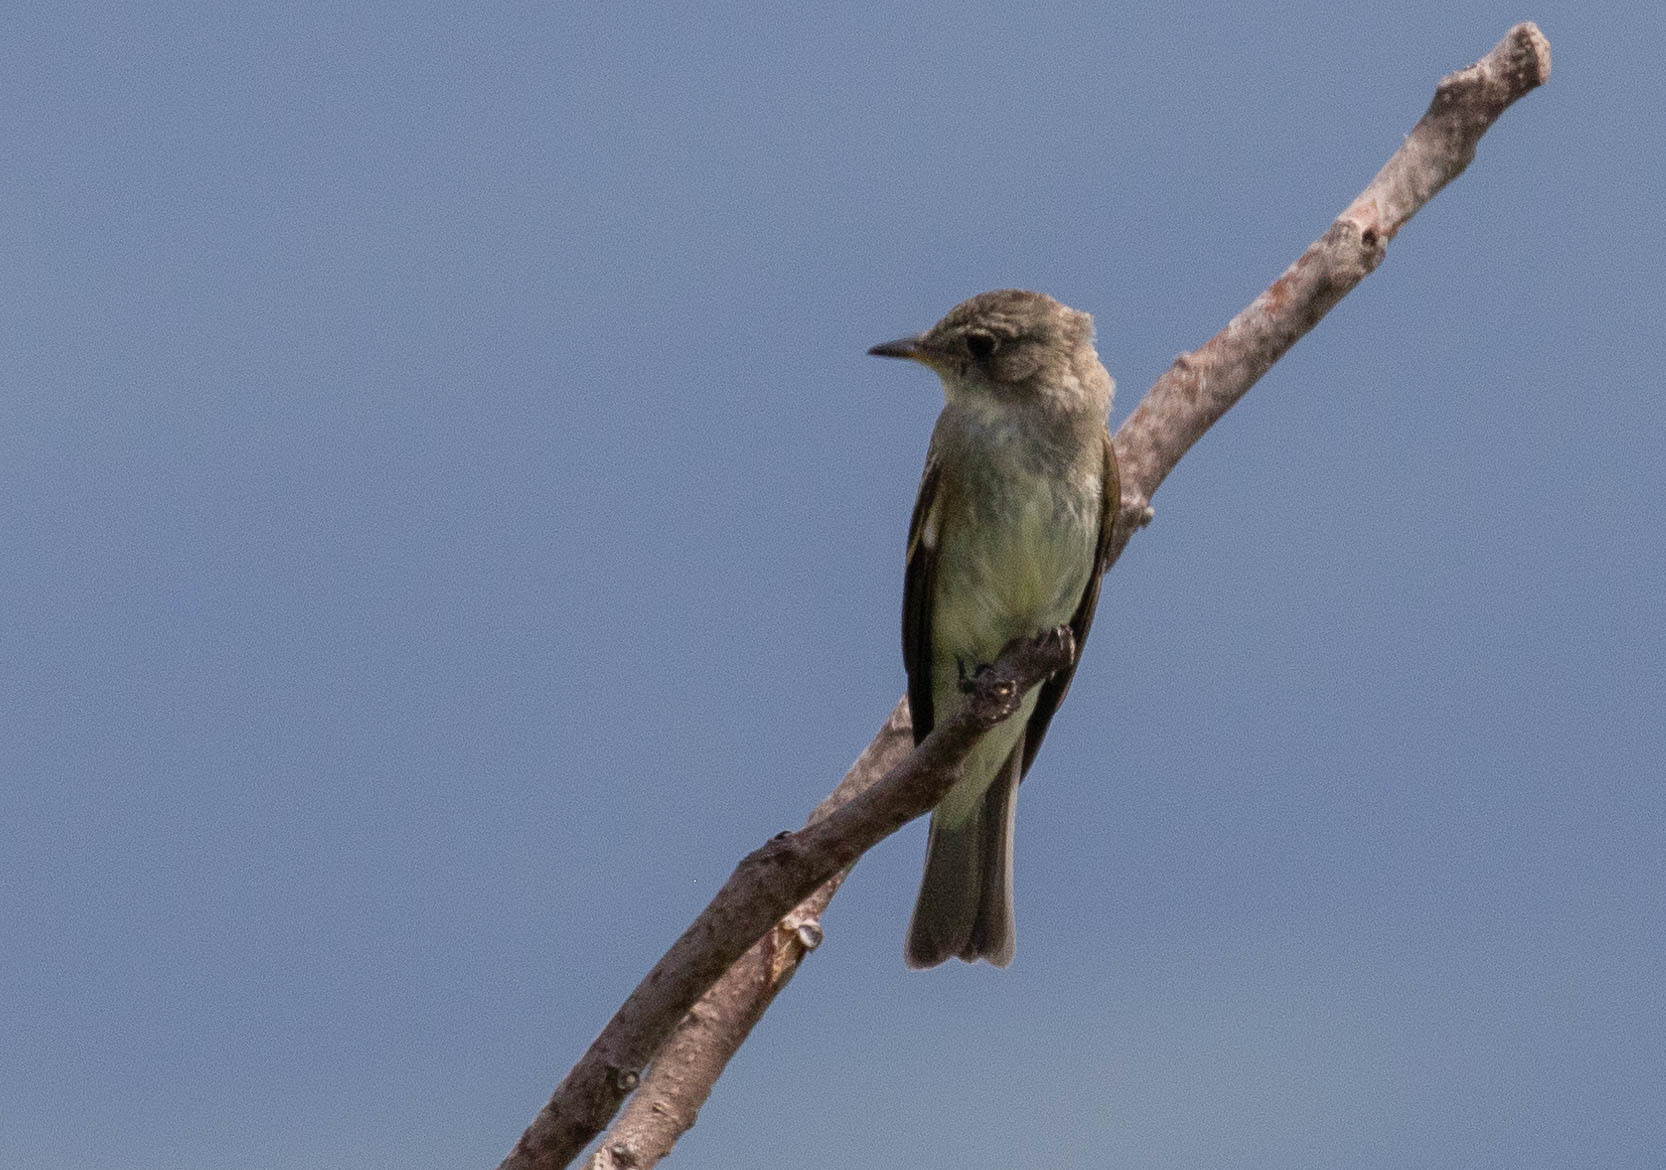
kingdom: Animalia
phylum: Chordata
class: Aves
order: Passeriformes
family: Tyrannidae
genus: Contopus
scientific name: Contopus virens
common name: Eastern wood-pewee
